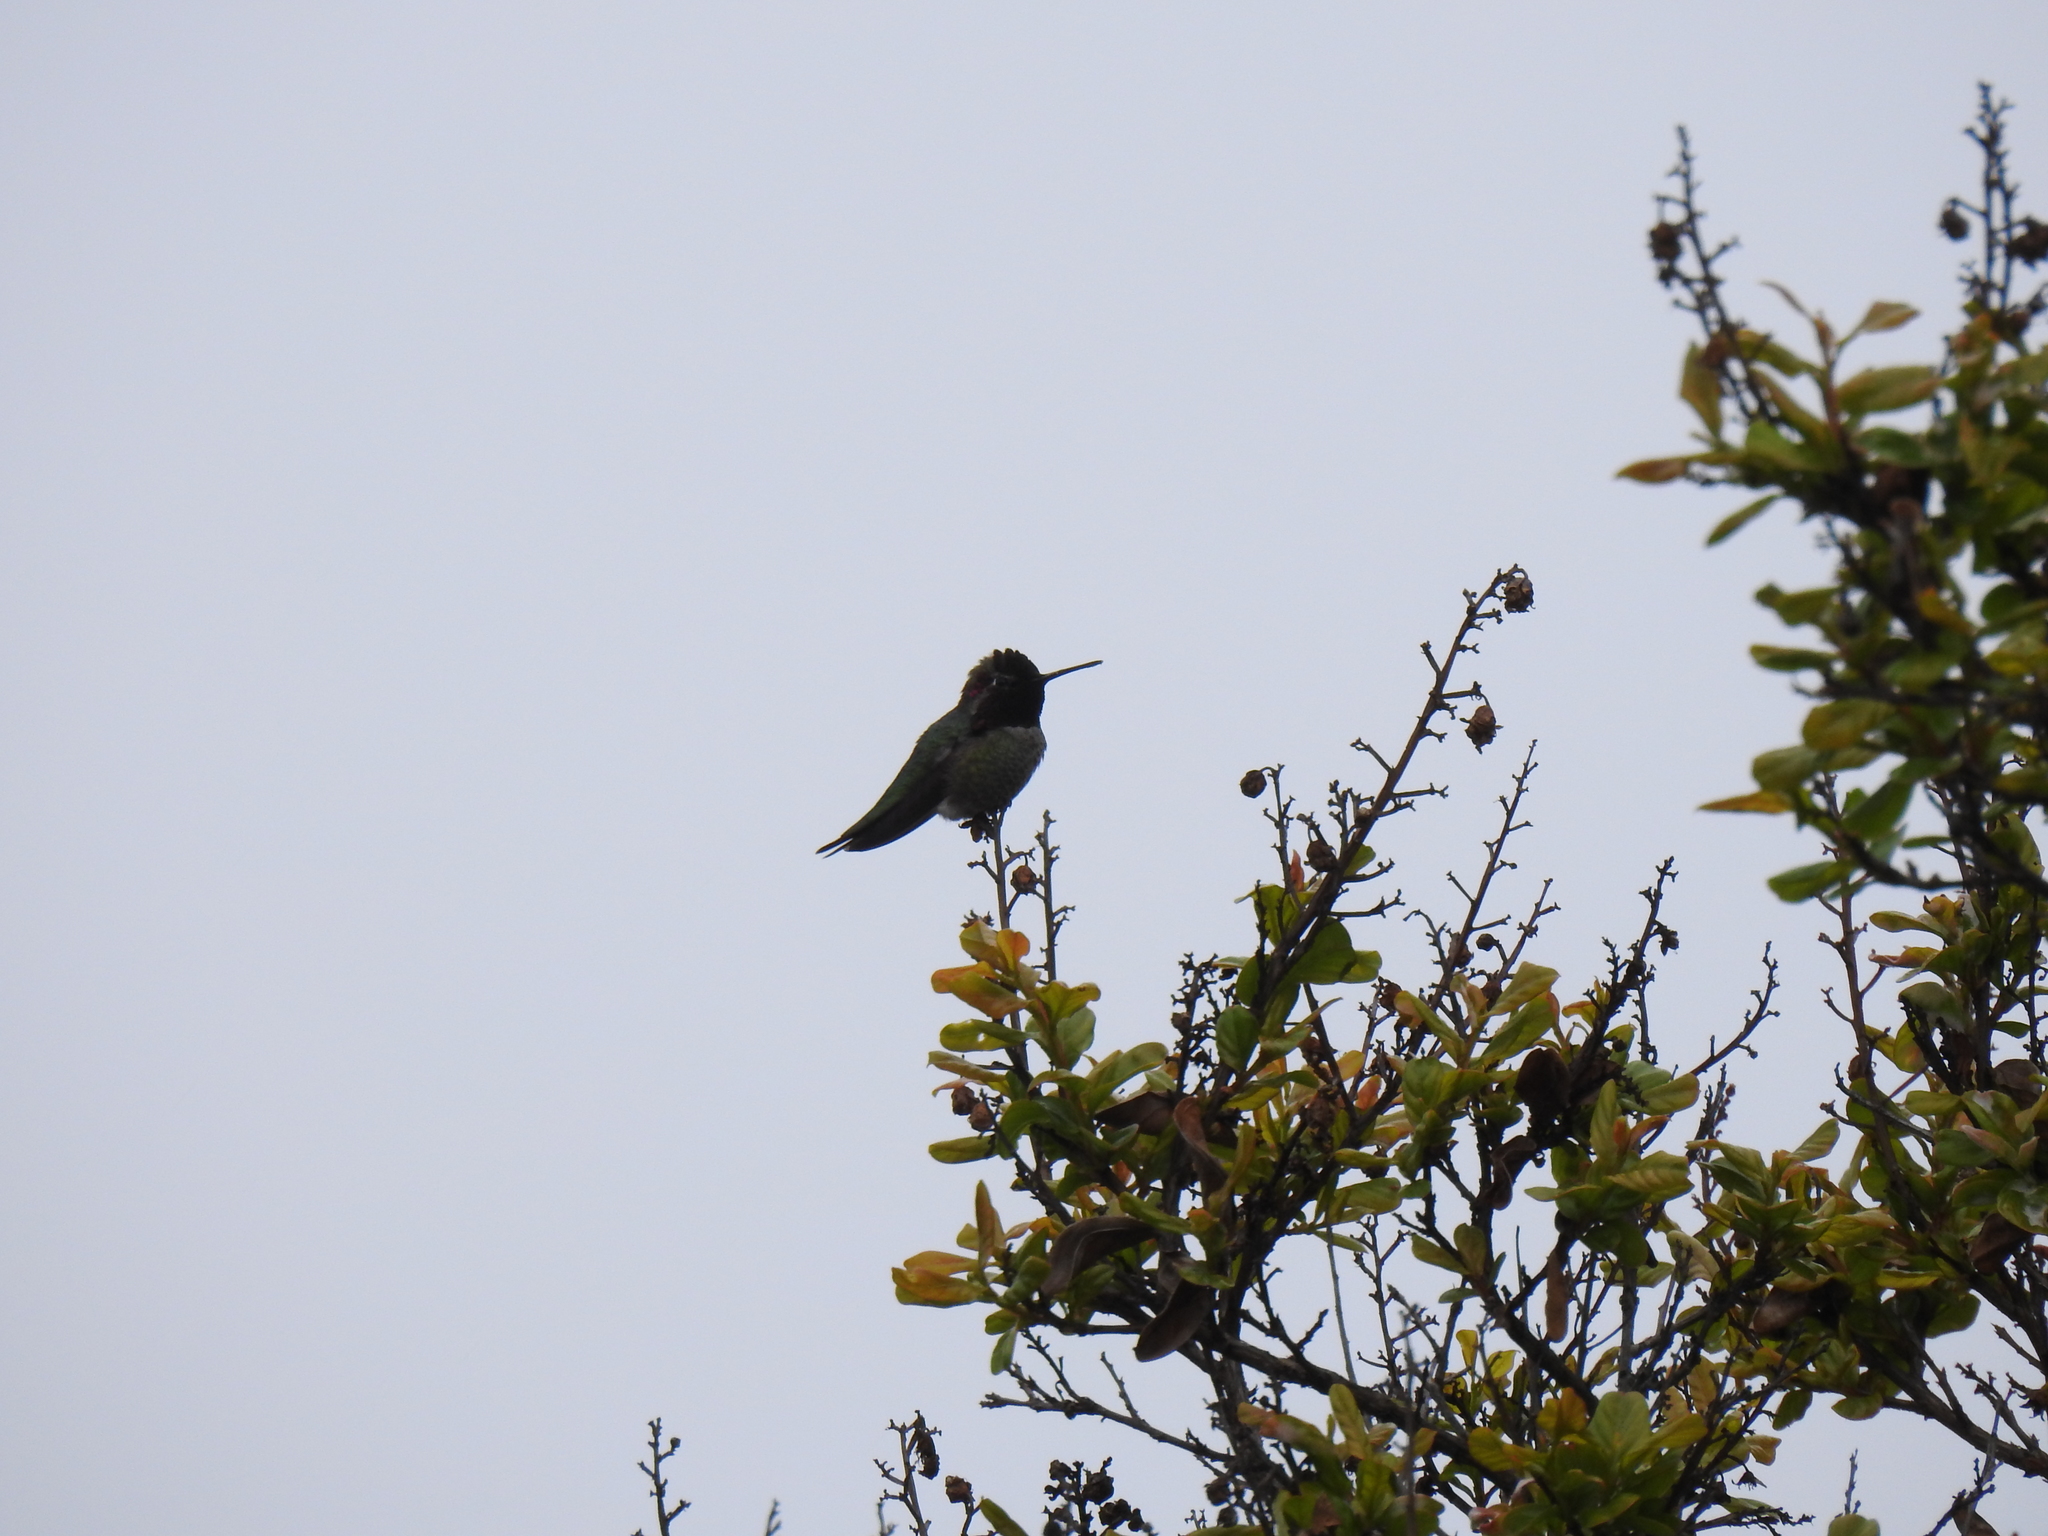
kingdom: Animalia
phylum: Chordata
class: Aves
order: Apodiformes
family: Trochilidae
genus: Calypte
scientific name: Calypte anna
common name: Anna's hummingbird
